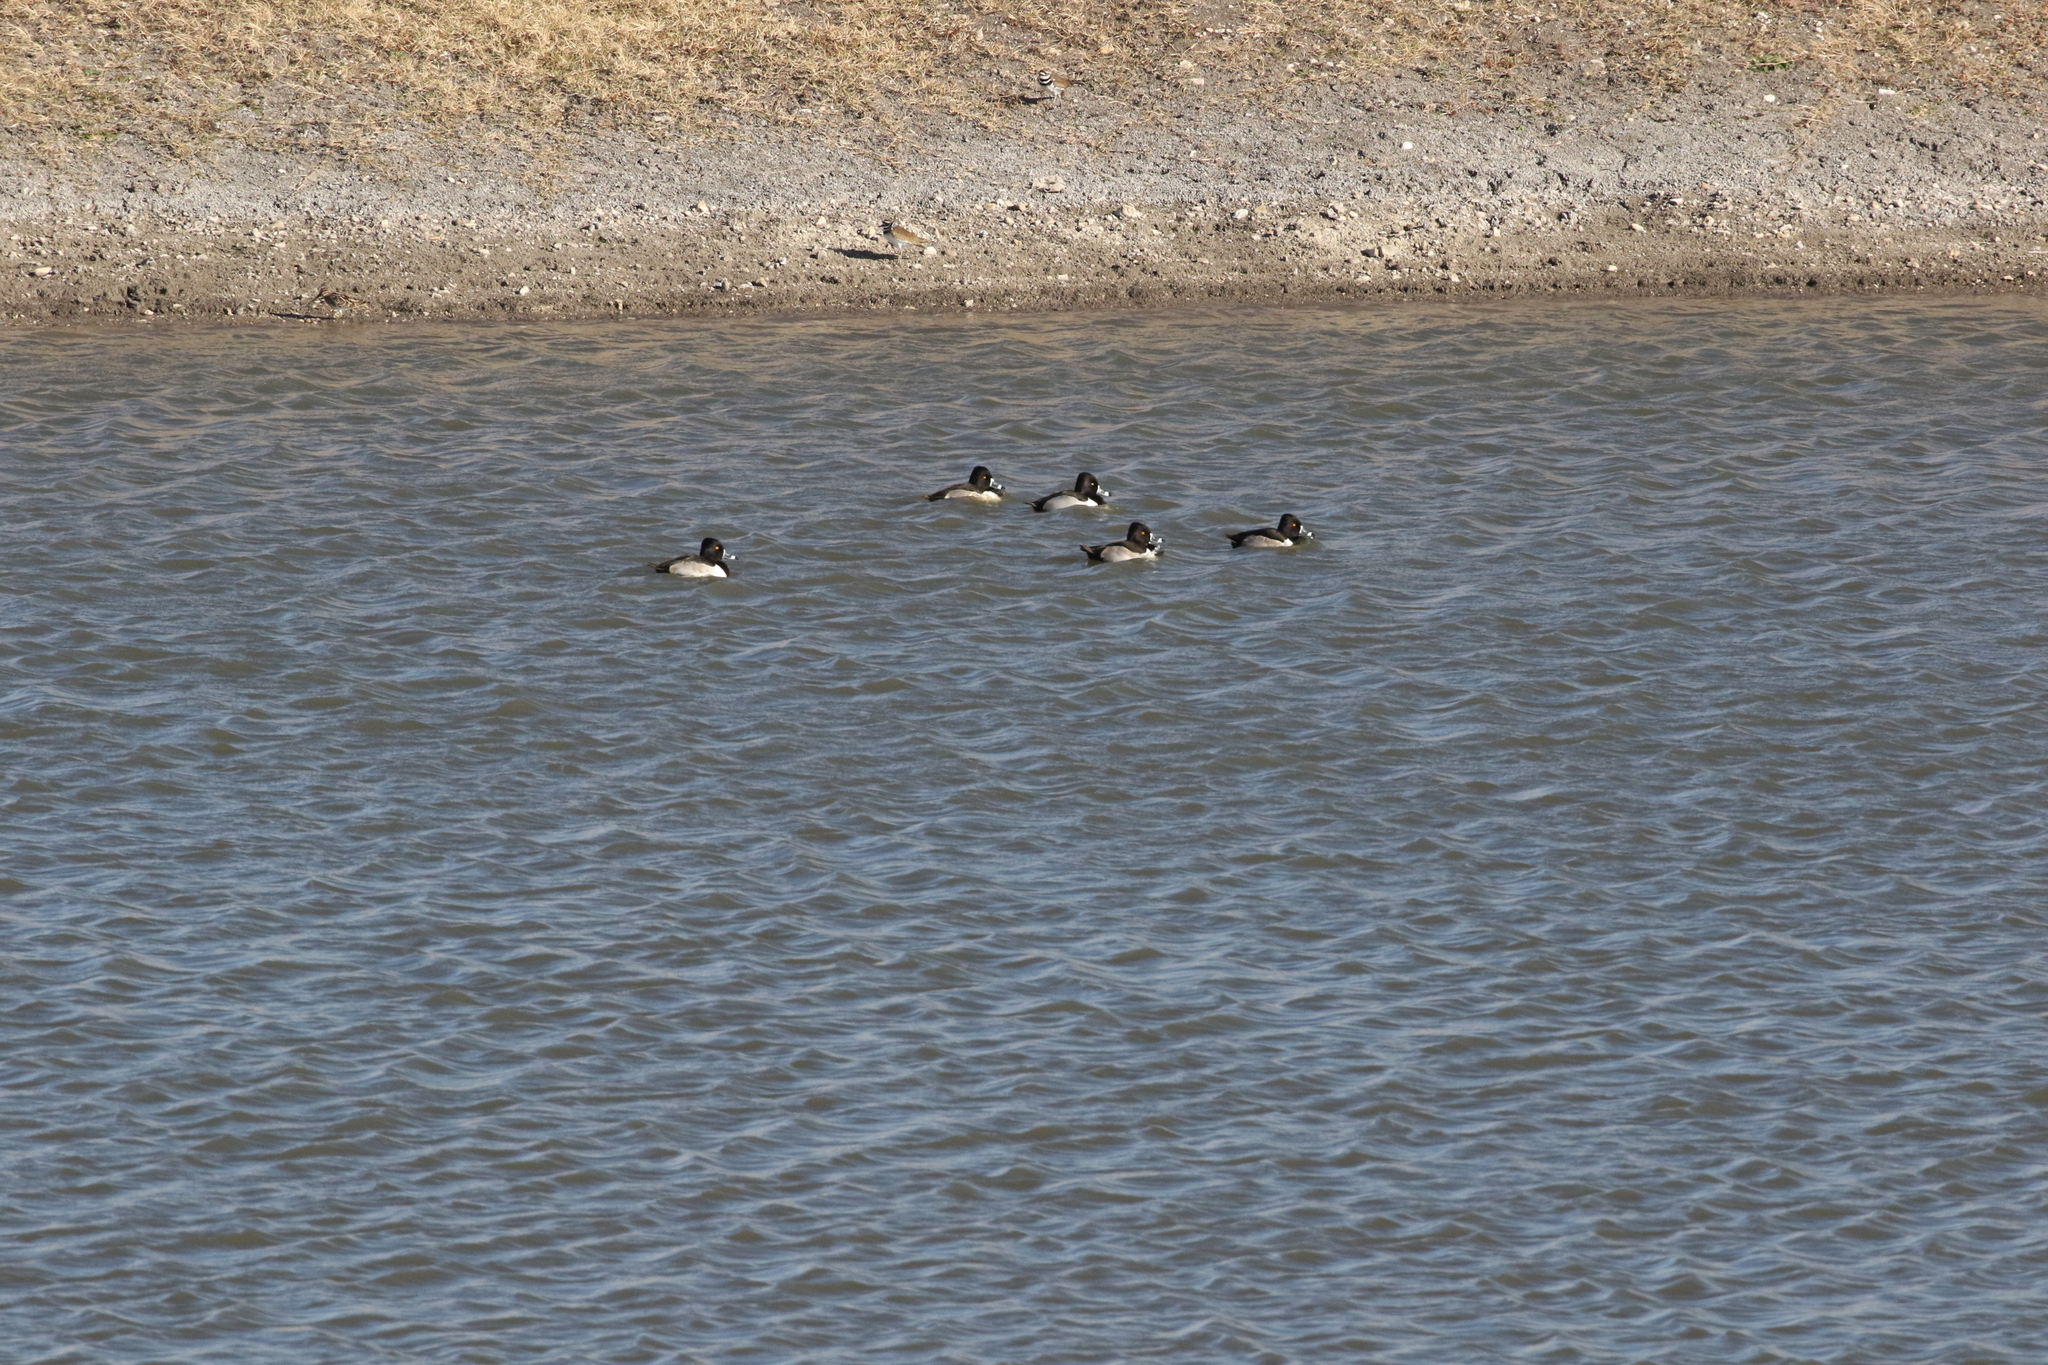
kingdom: Animalia
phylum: Chordata
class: Aves
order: Anseriformes
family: Anatidae
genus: Aythya
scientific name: Aythya collaris
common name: Ring-necked duck
